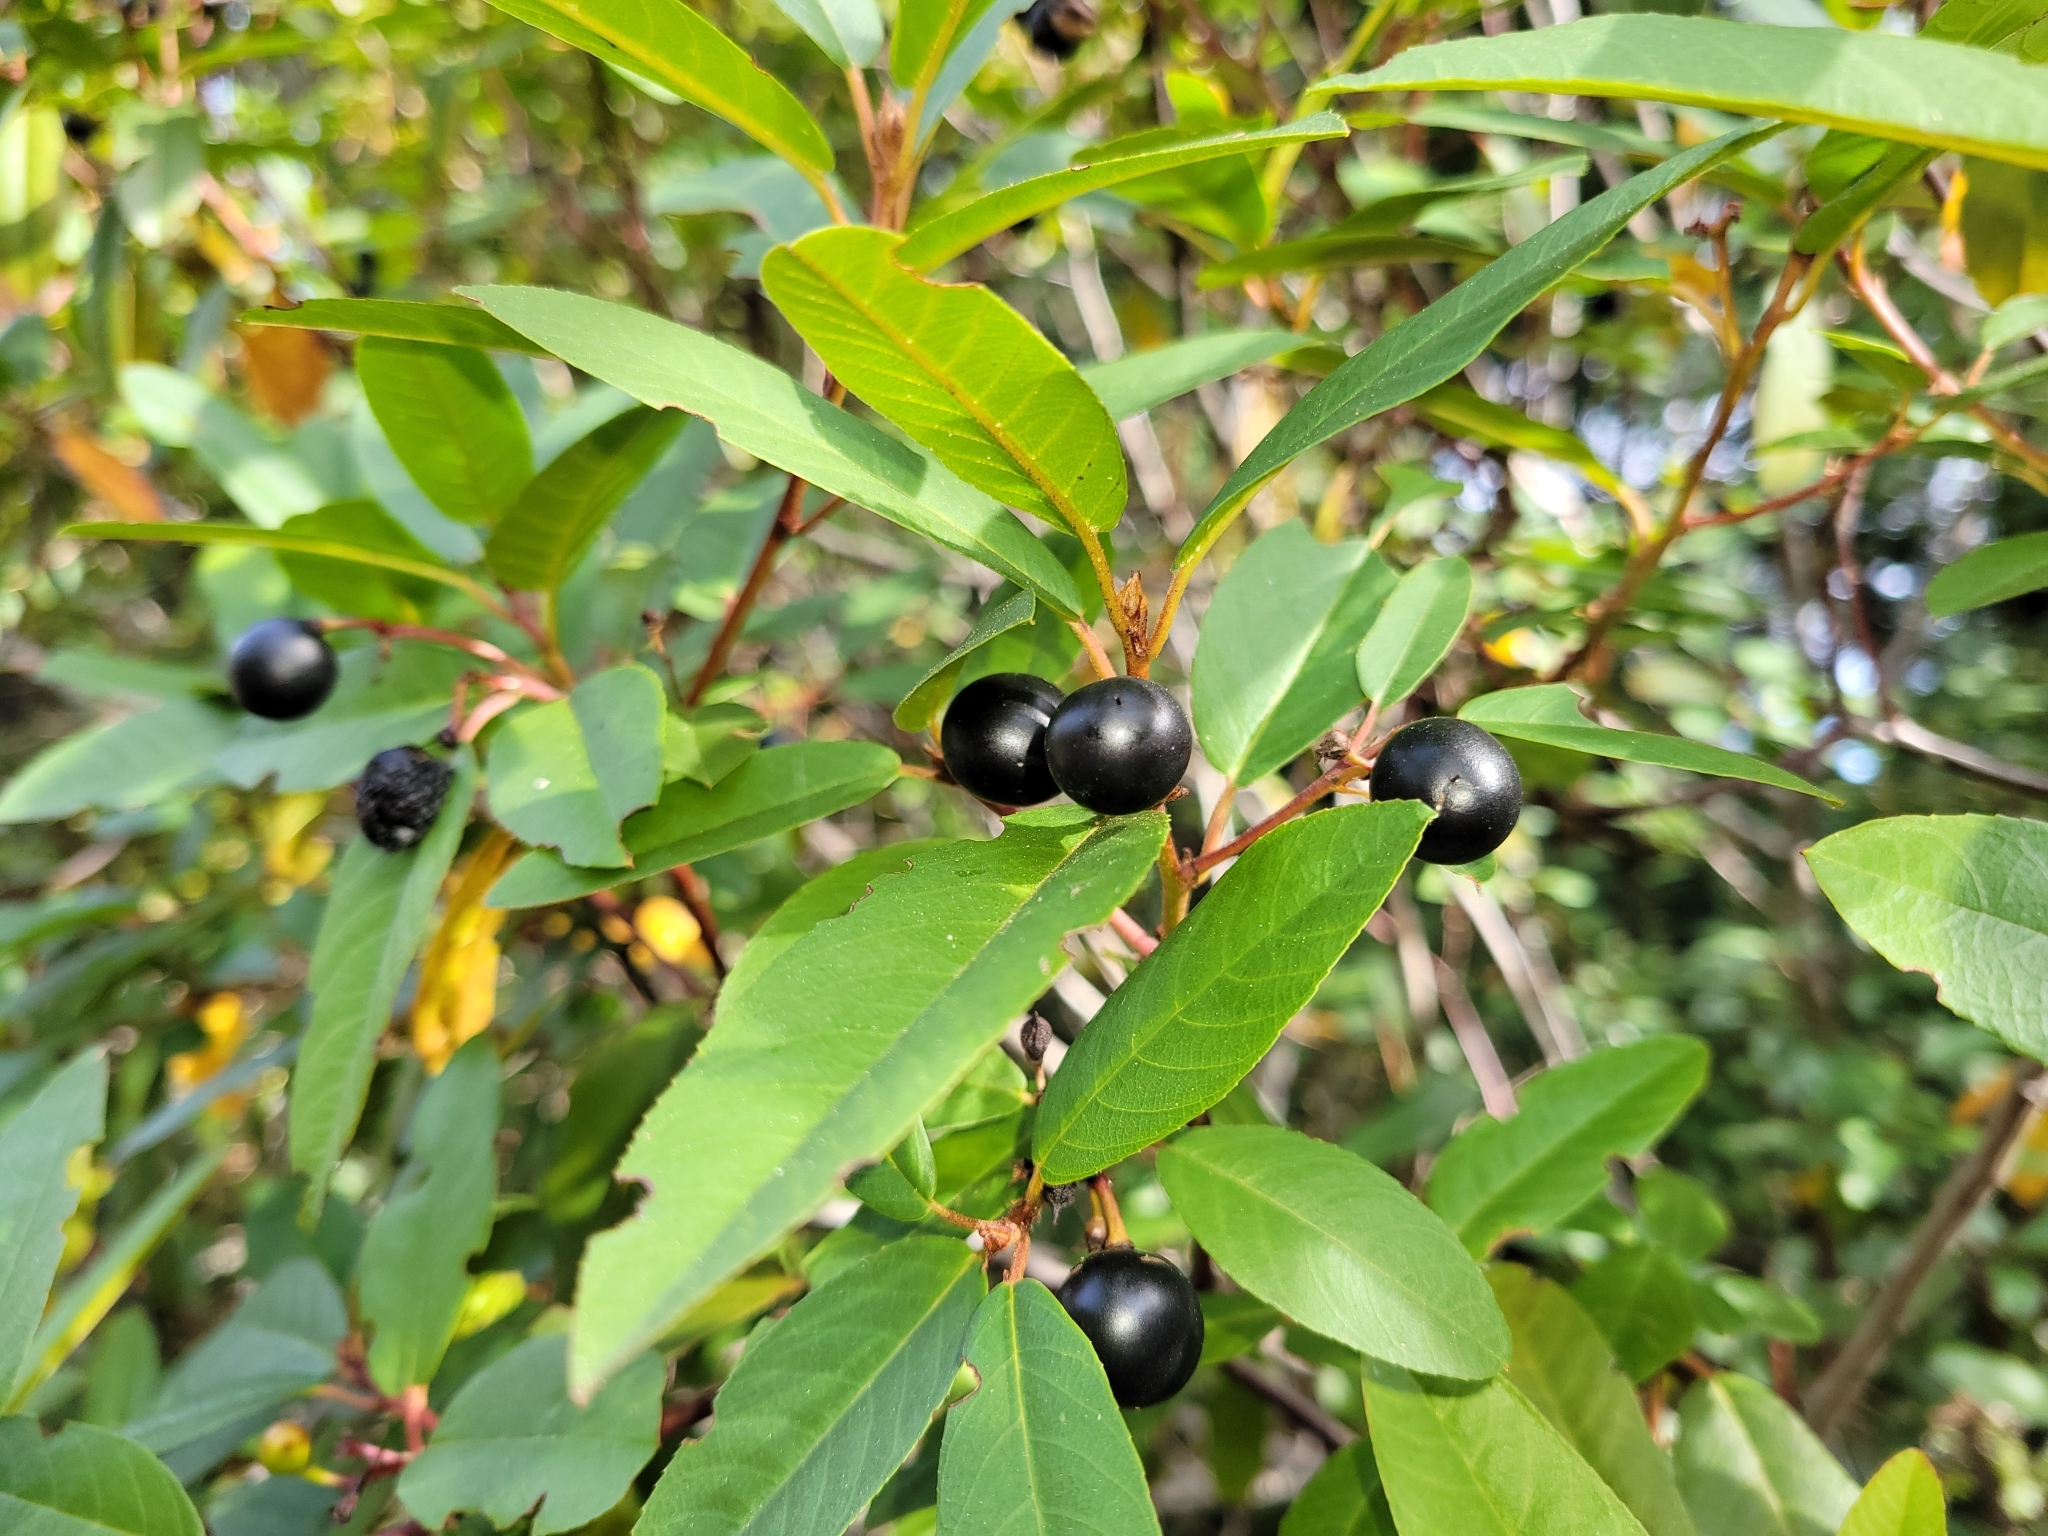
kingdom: Plantae
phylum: Tracheophyta
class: Magnoliopsida
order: Rosales
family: Rhamnaceae
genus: Frangula
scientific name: Frangula californica
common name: California buckthorn
